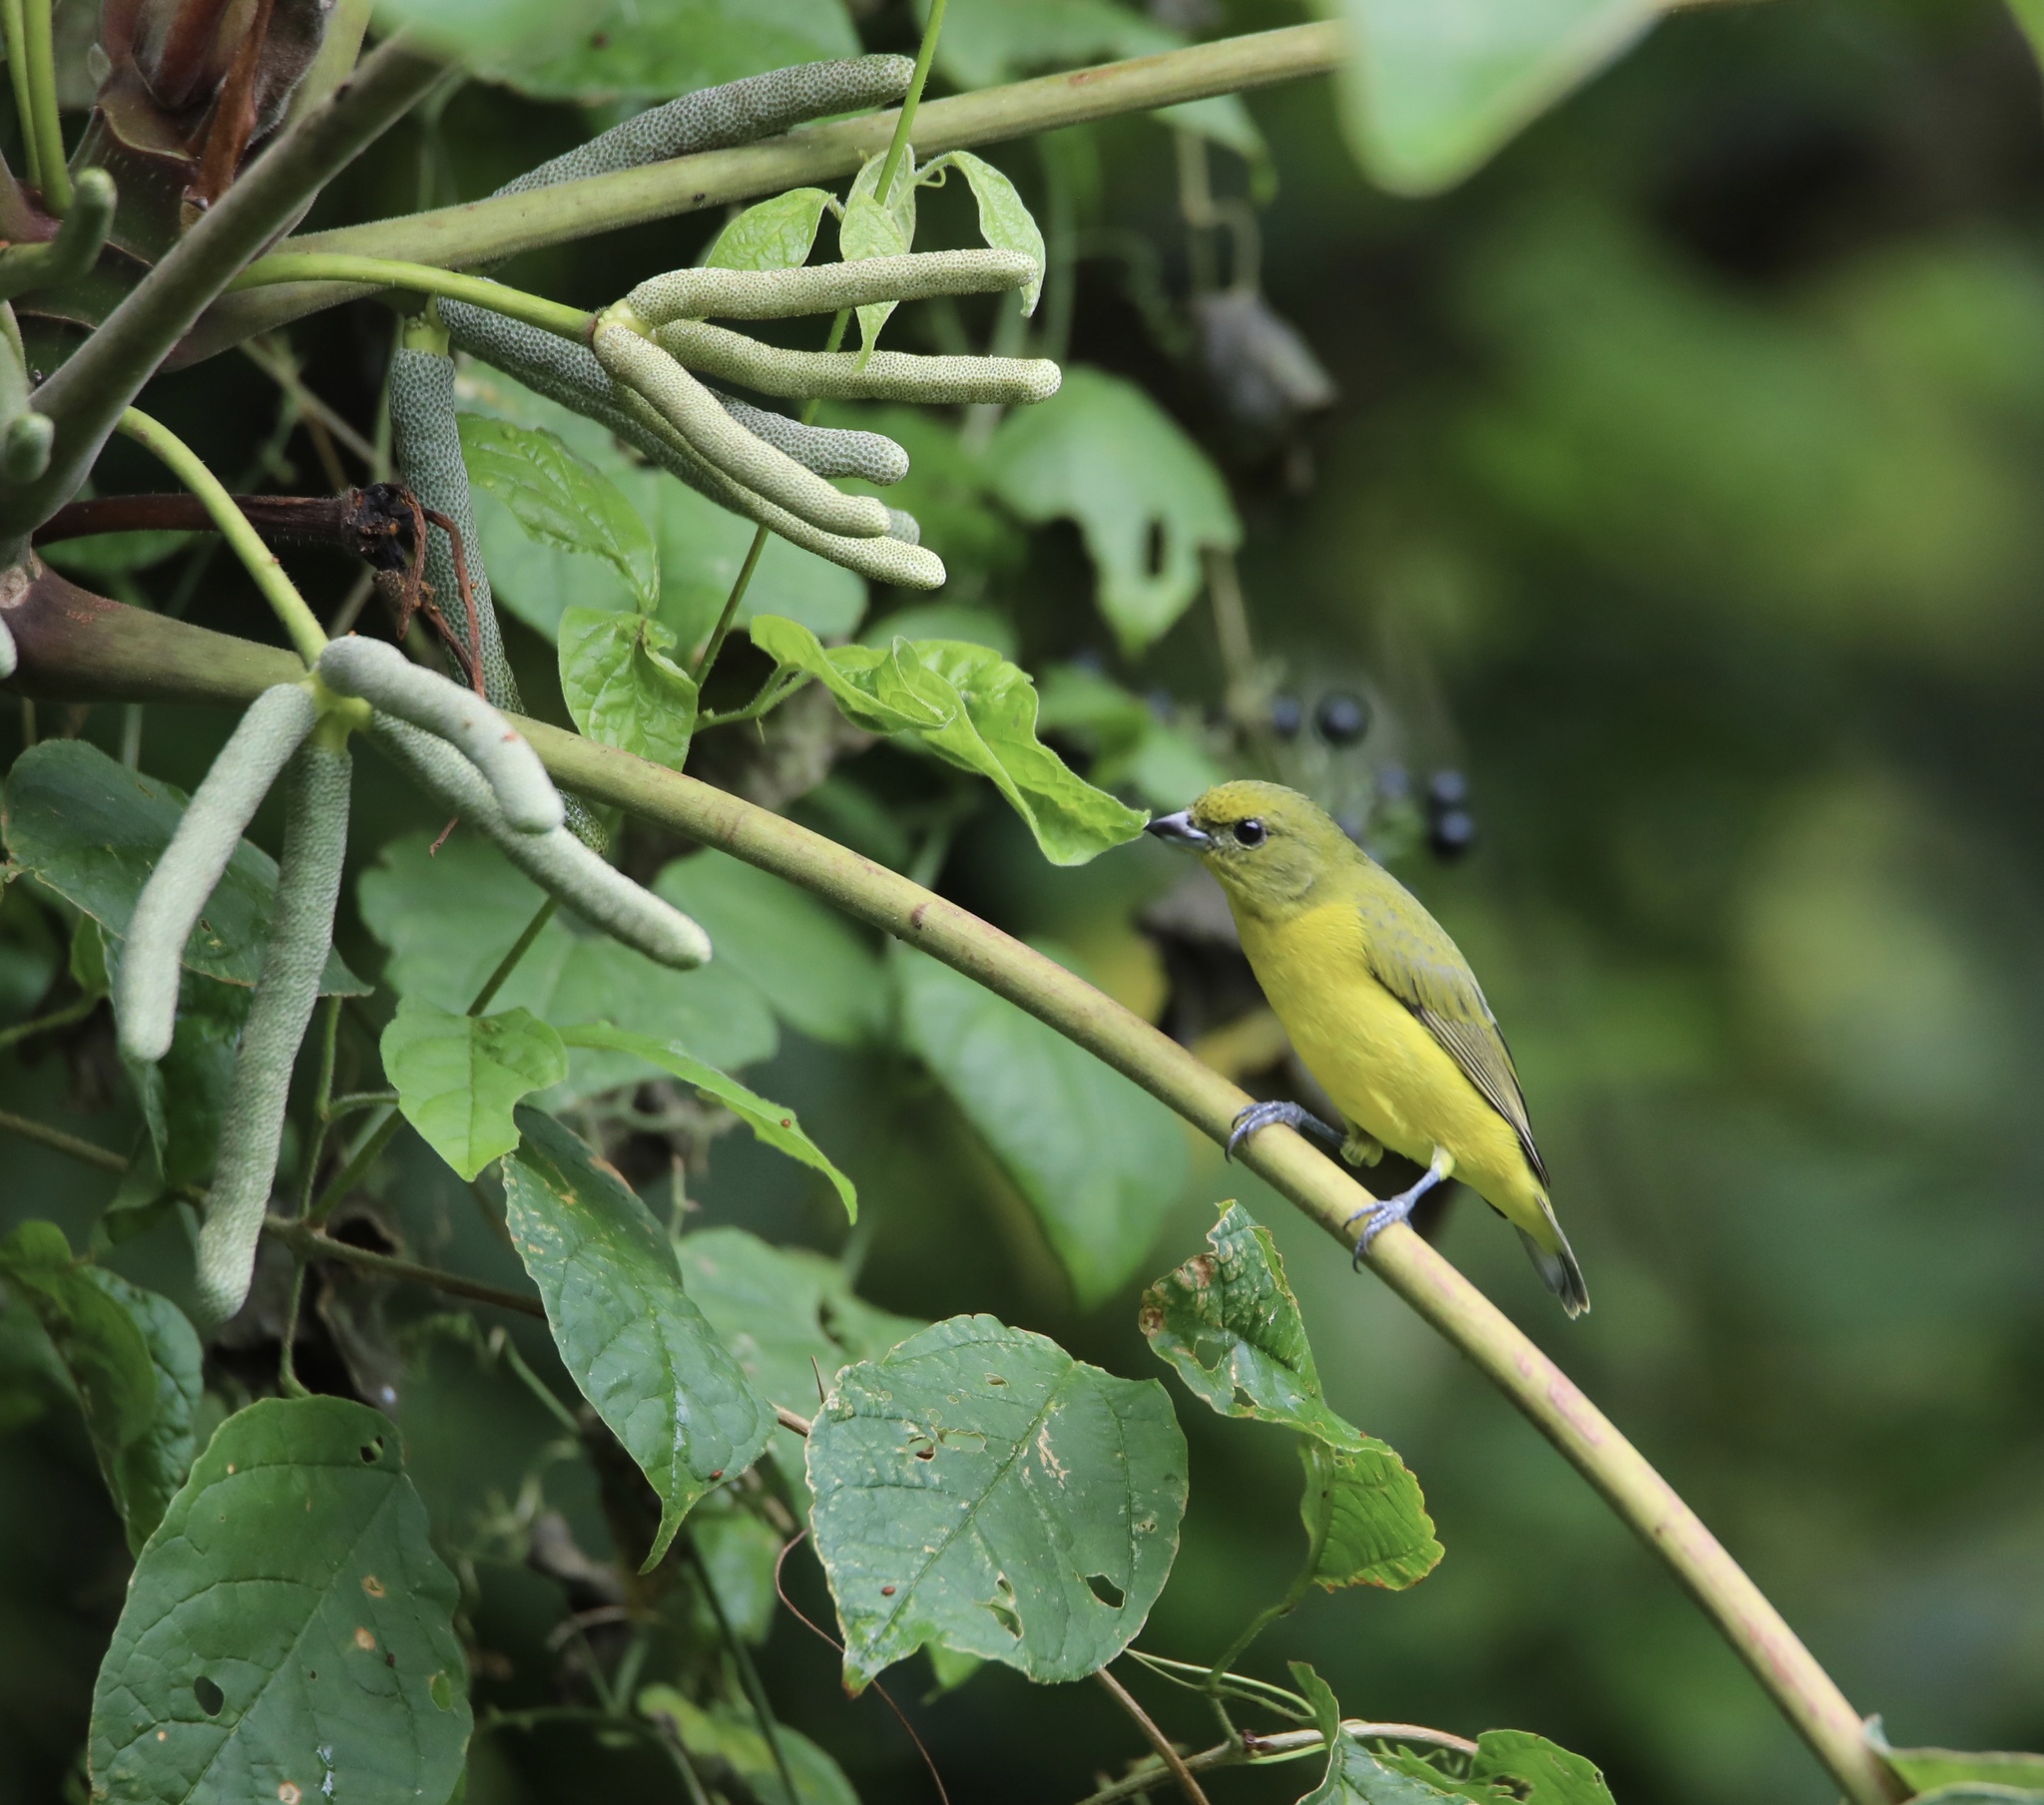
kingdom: Animalia
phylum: Chordata
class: Aves
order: Passeriformes
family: Fringillidae
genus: Euphonia
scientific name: Euphonia laniirostris
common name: Thick-billed euphonia
